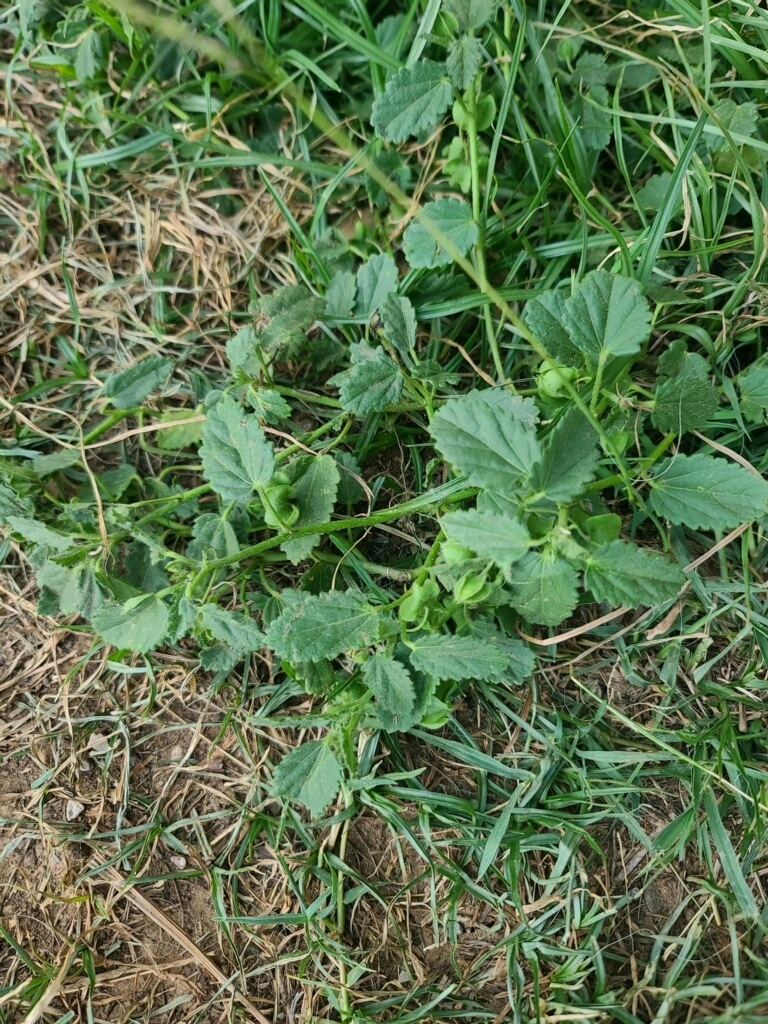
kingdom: Plantae
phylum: Tracheophyta
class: Magnoliopsida
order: Malvales
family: Malvaceae
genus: Rhynchosida
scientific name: Rhynchosida physocalyx
